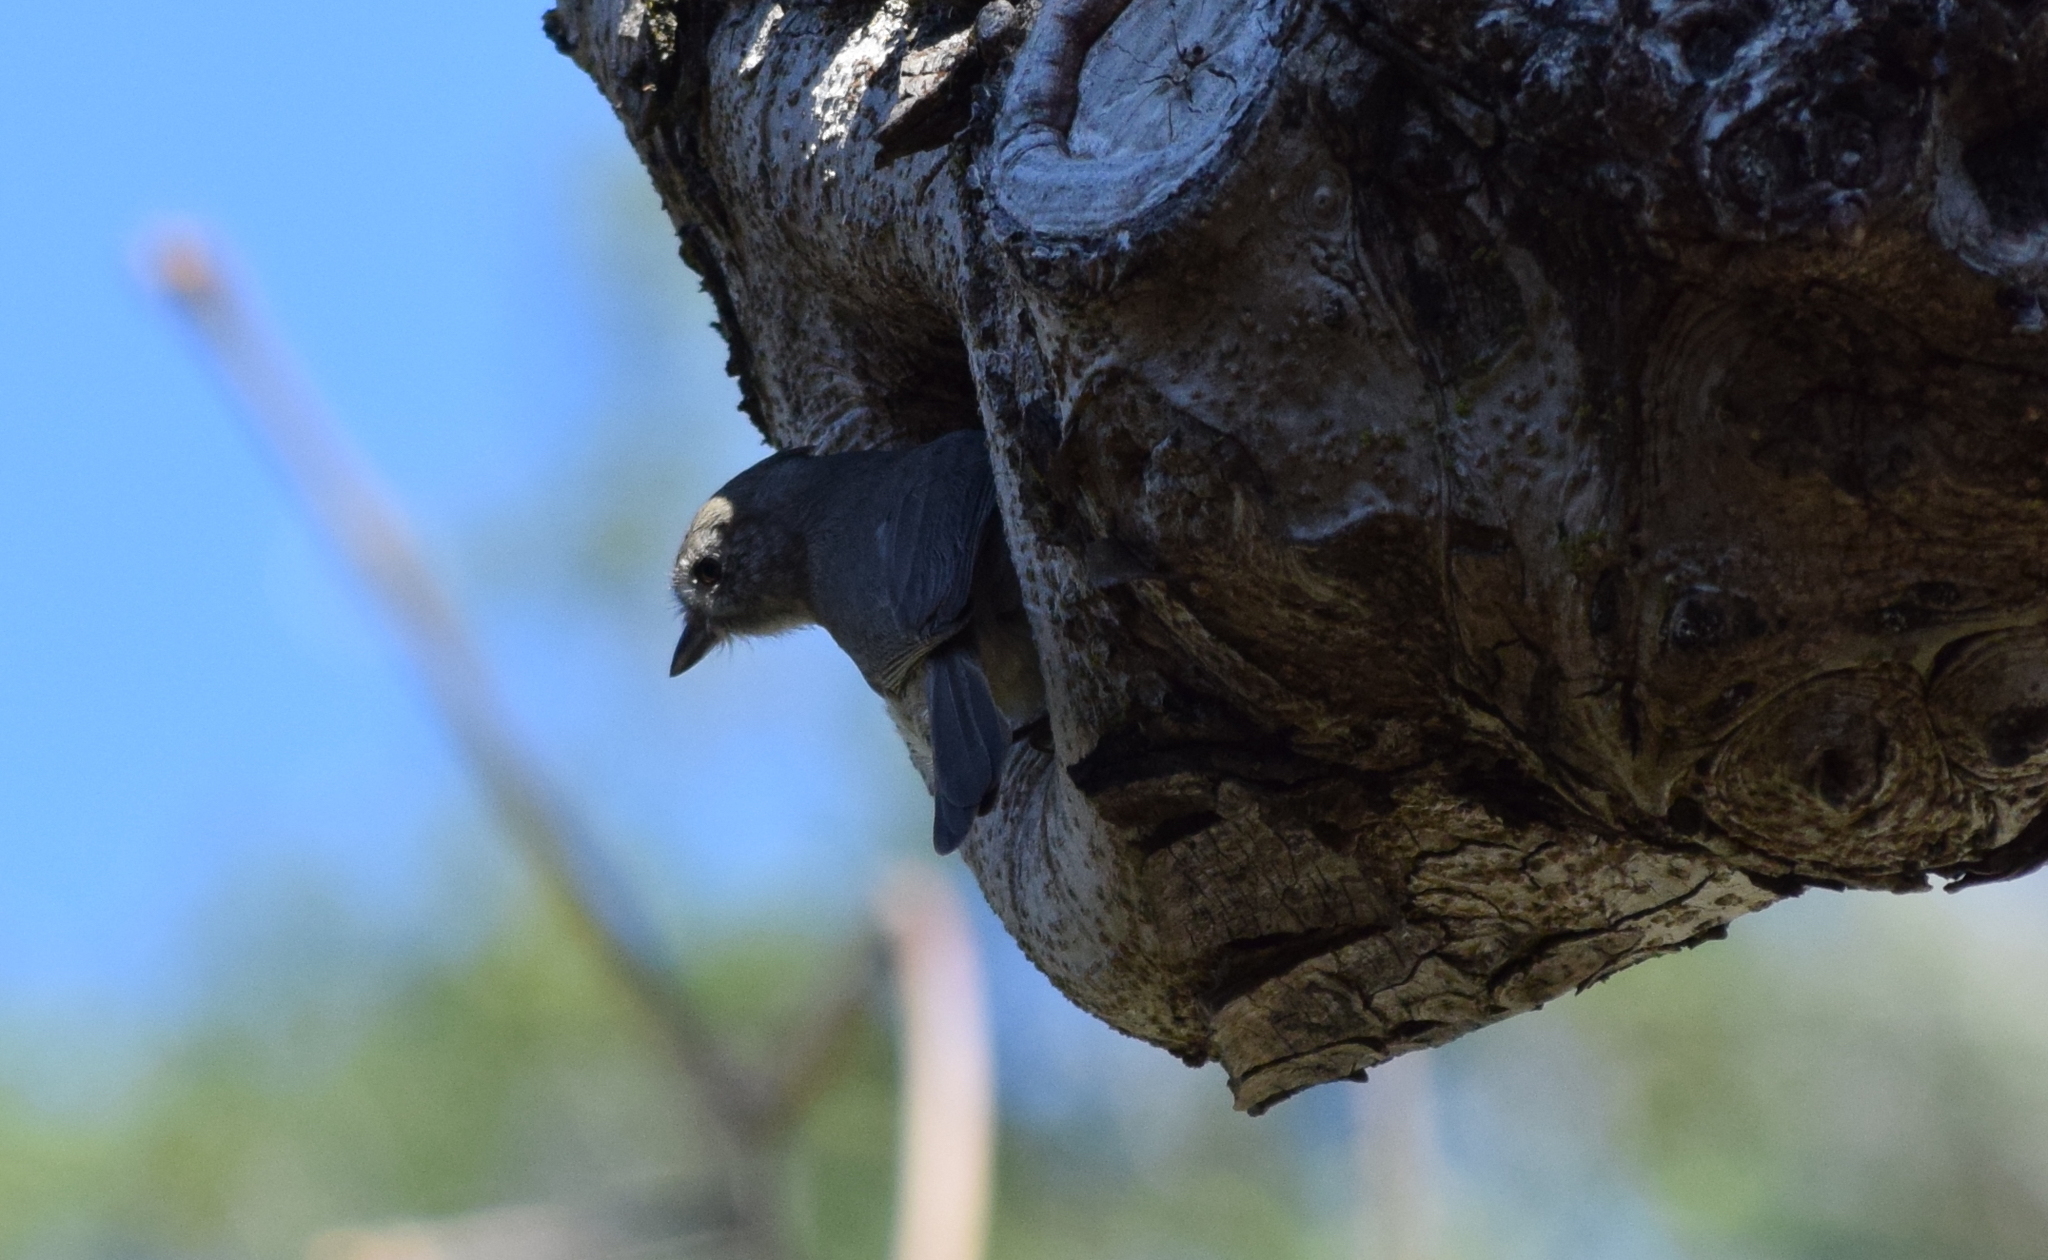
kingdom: Animalia
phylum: Chordata
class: Aves
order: Passeriformes
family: Paridae
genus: Baeolophus
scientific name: Baeolophus inornatus
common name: Oak titmouse
